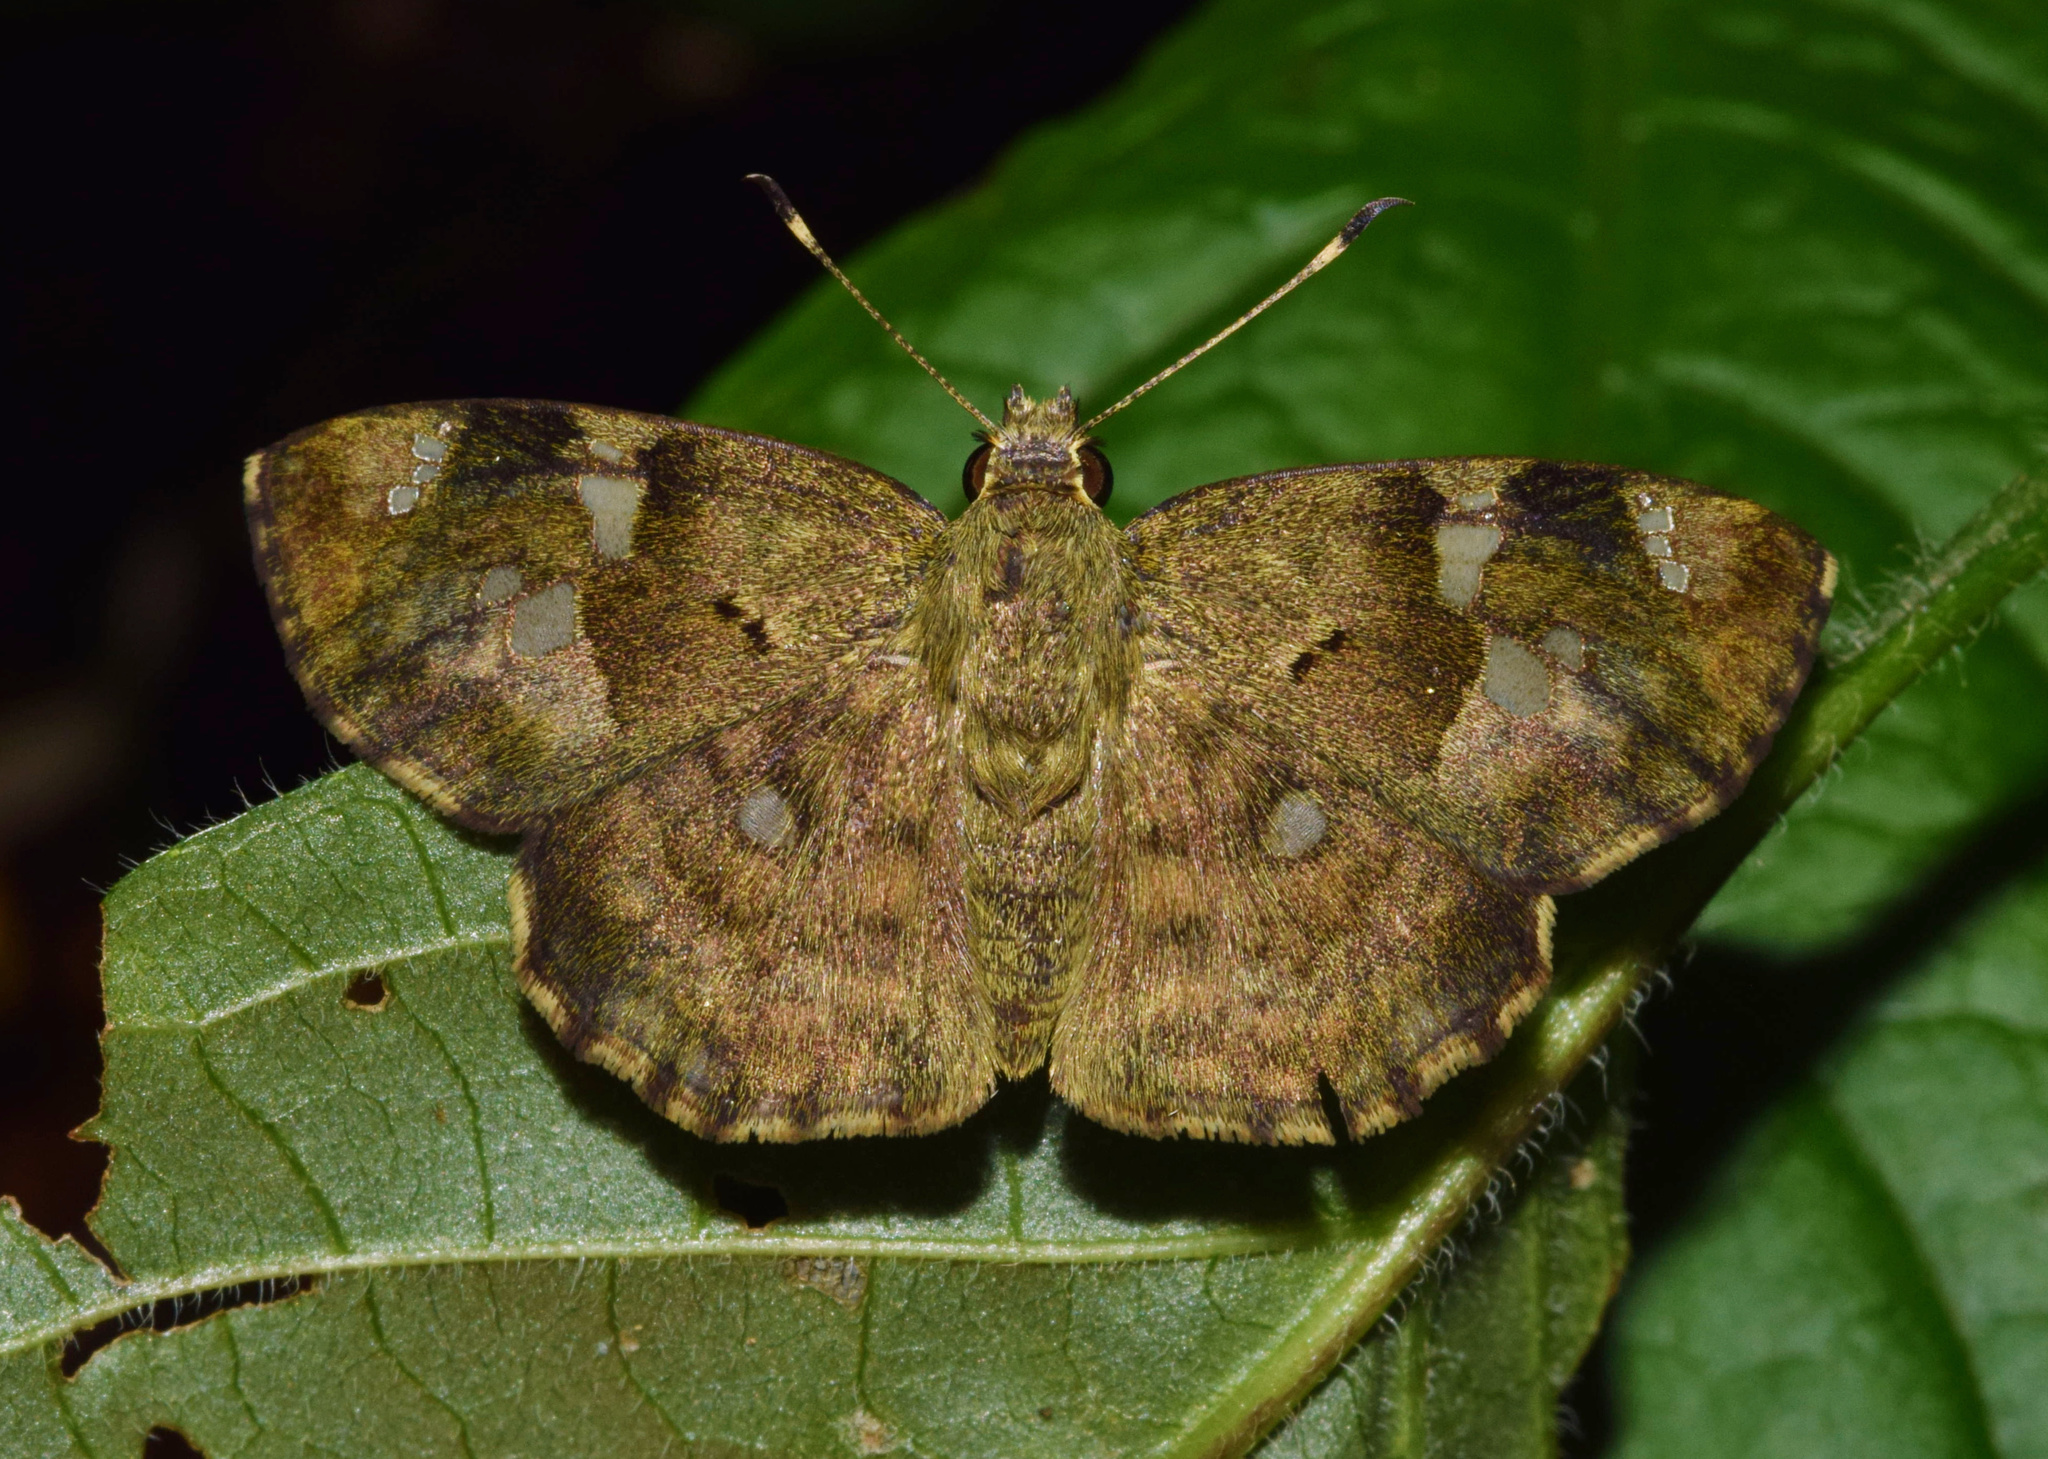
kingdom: Animalia
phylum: Arthropoda
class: Insecta
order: Lepidoptera
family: Hesperiidae
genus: Sarangesa
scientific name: Sarangesa motozi
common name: Forest elfin
